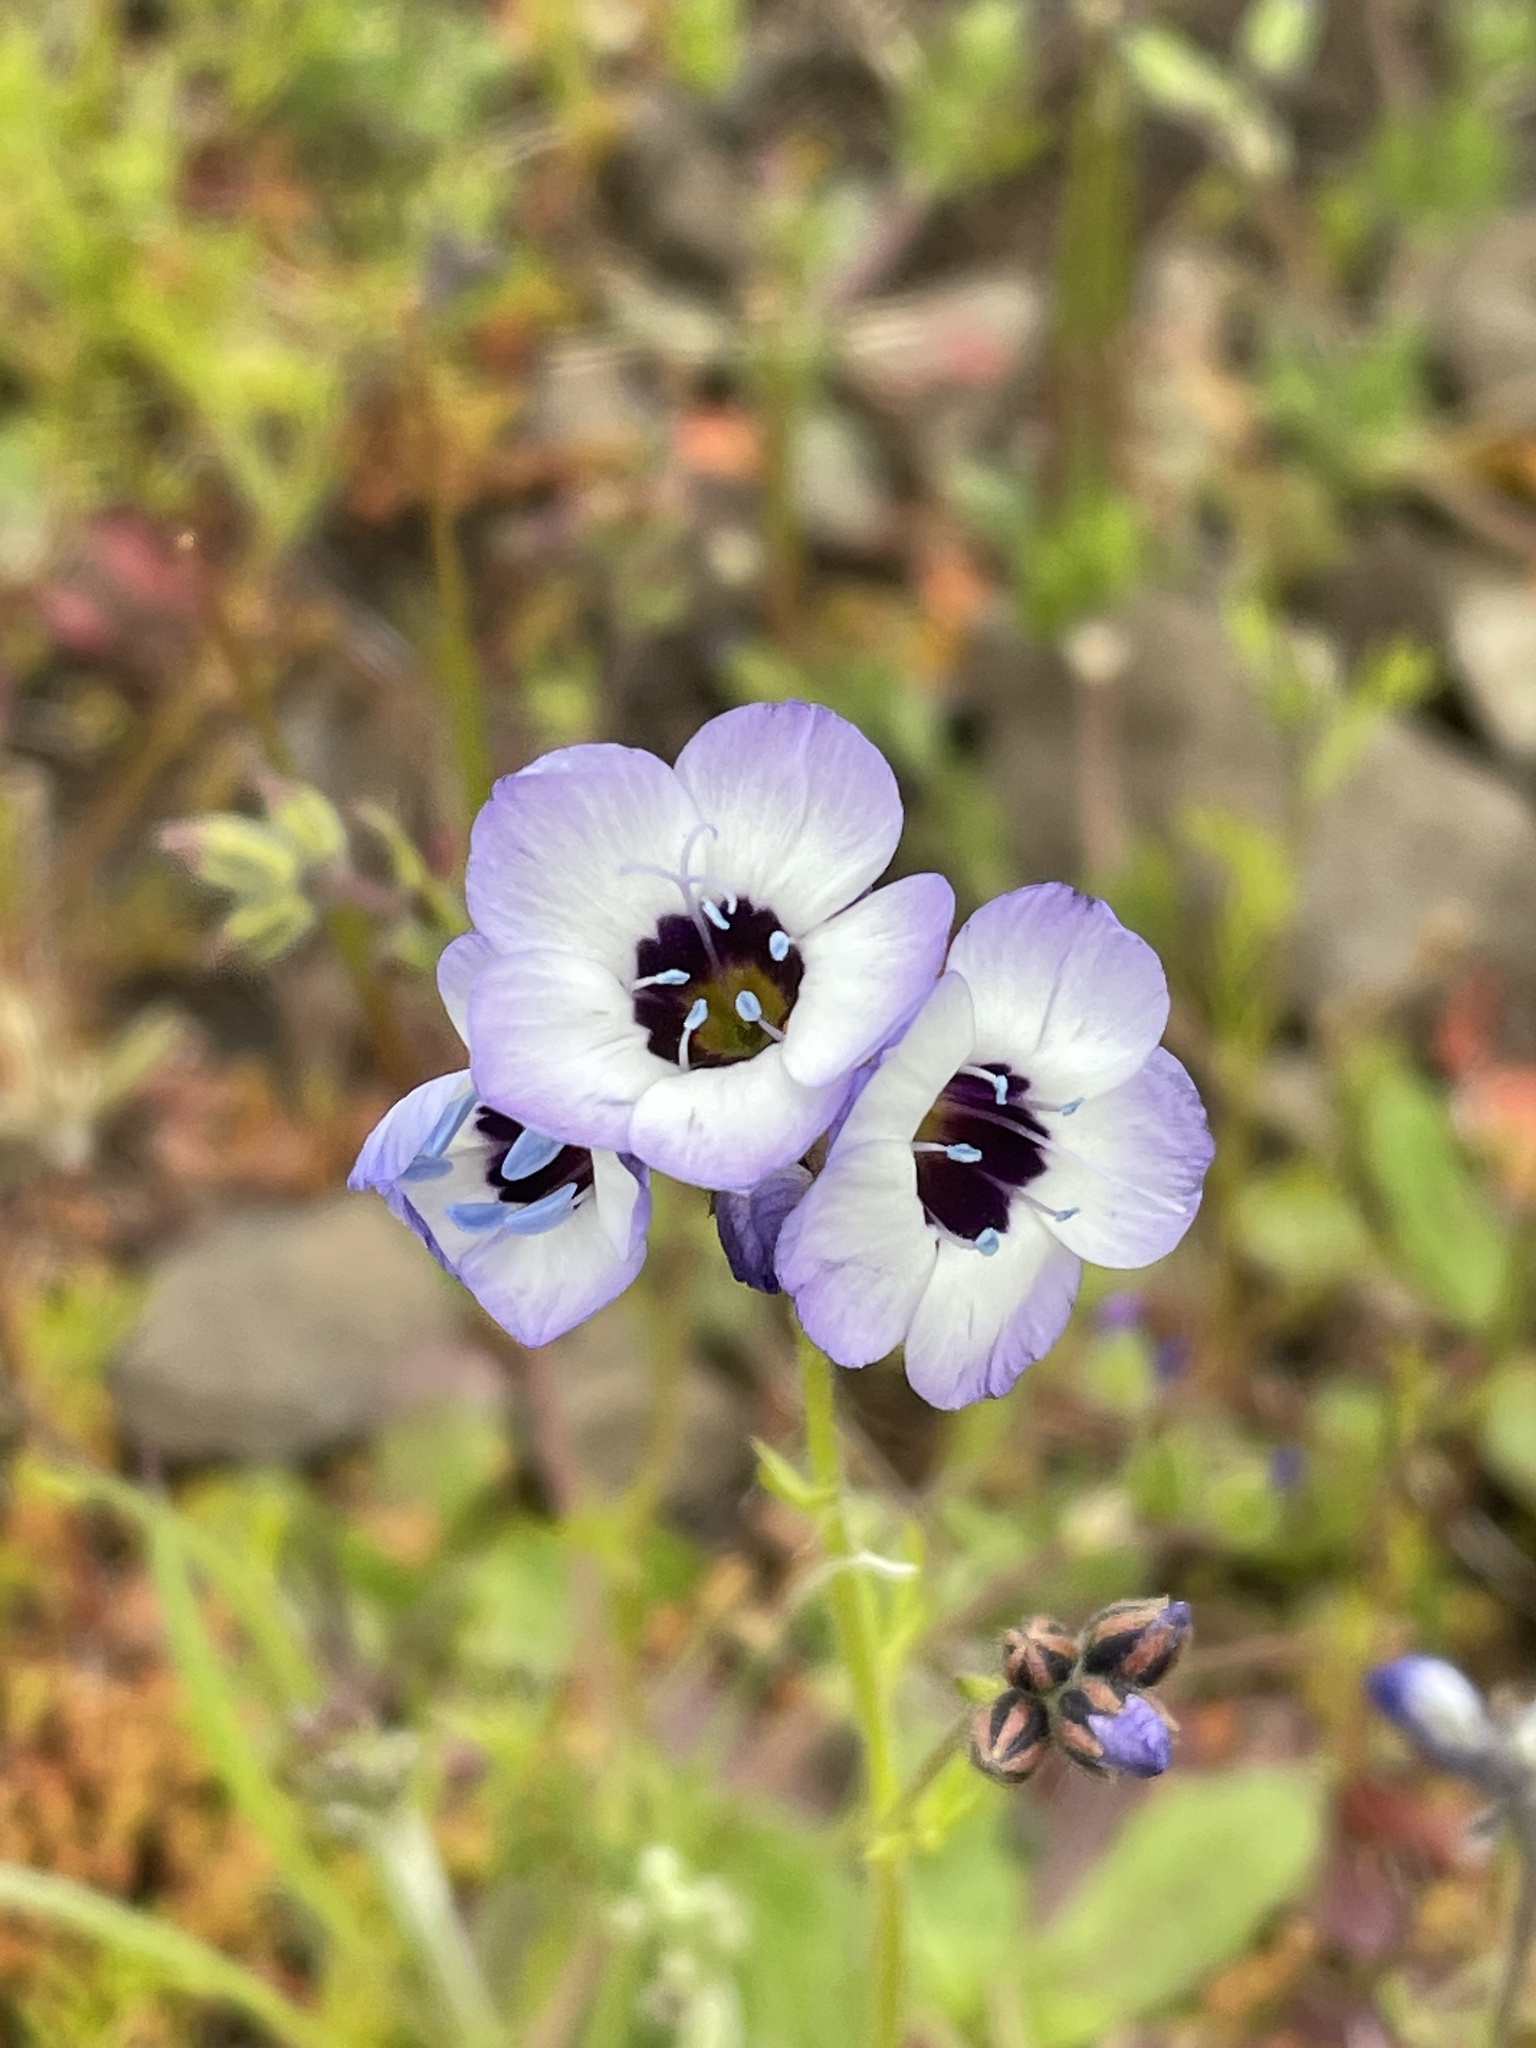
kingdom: Plantae
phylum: Tracheophyta
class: Magnoliopsida
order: Ericales
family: Polemoniaceae
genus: Gilia
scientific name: Gilia tricolor
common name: Bird's-eyes
